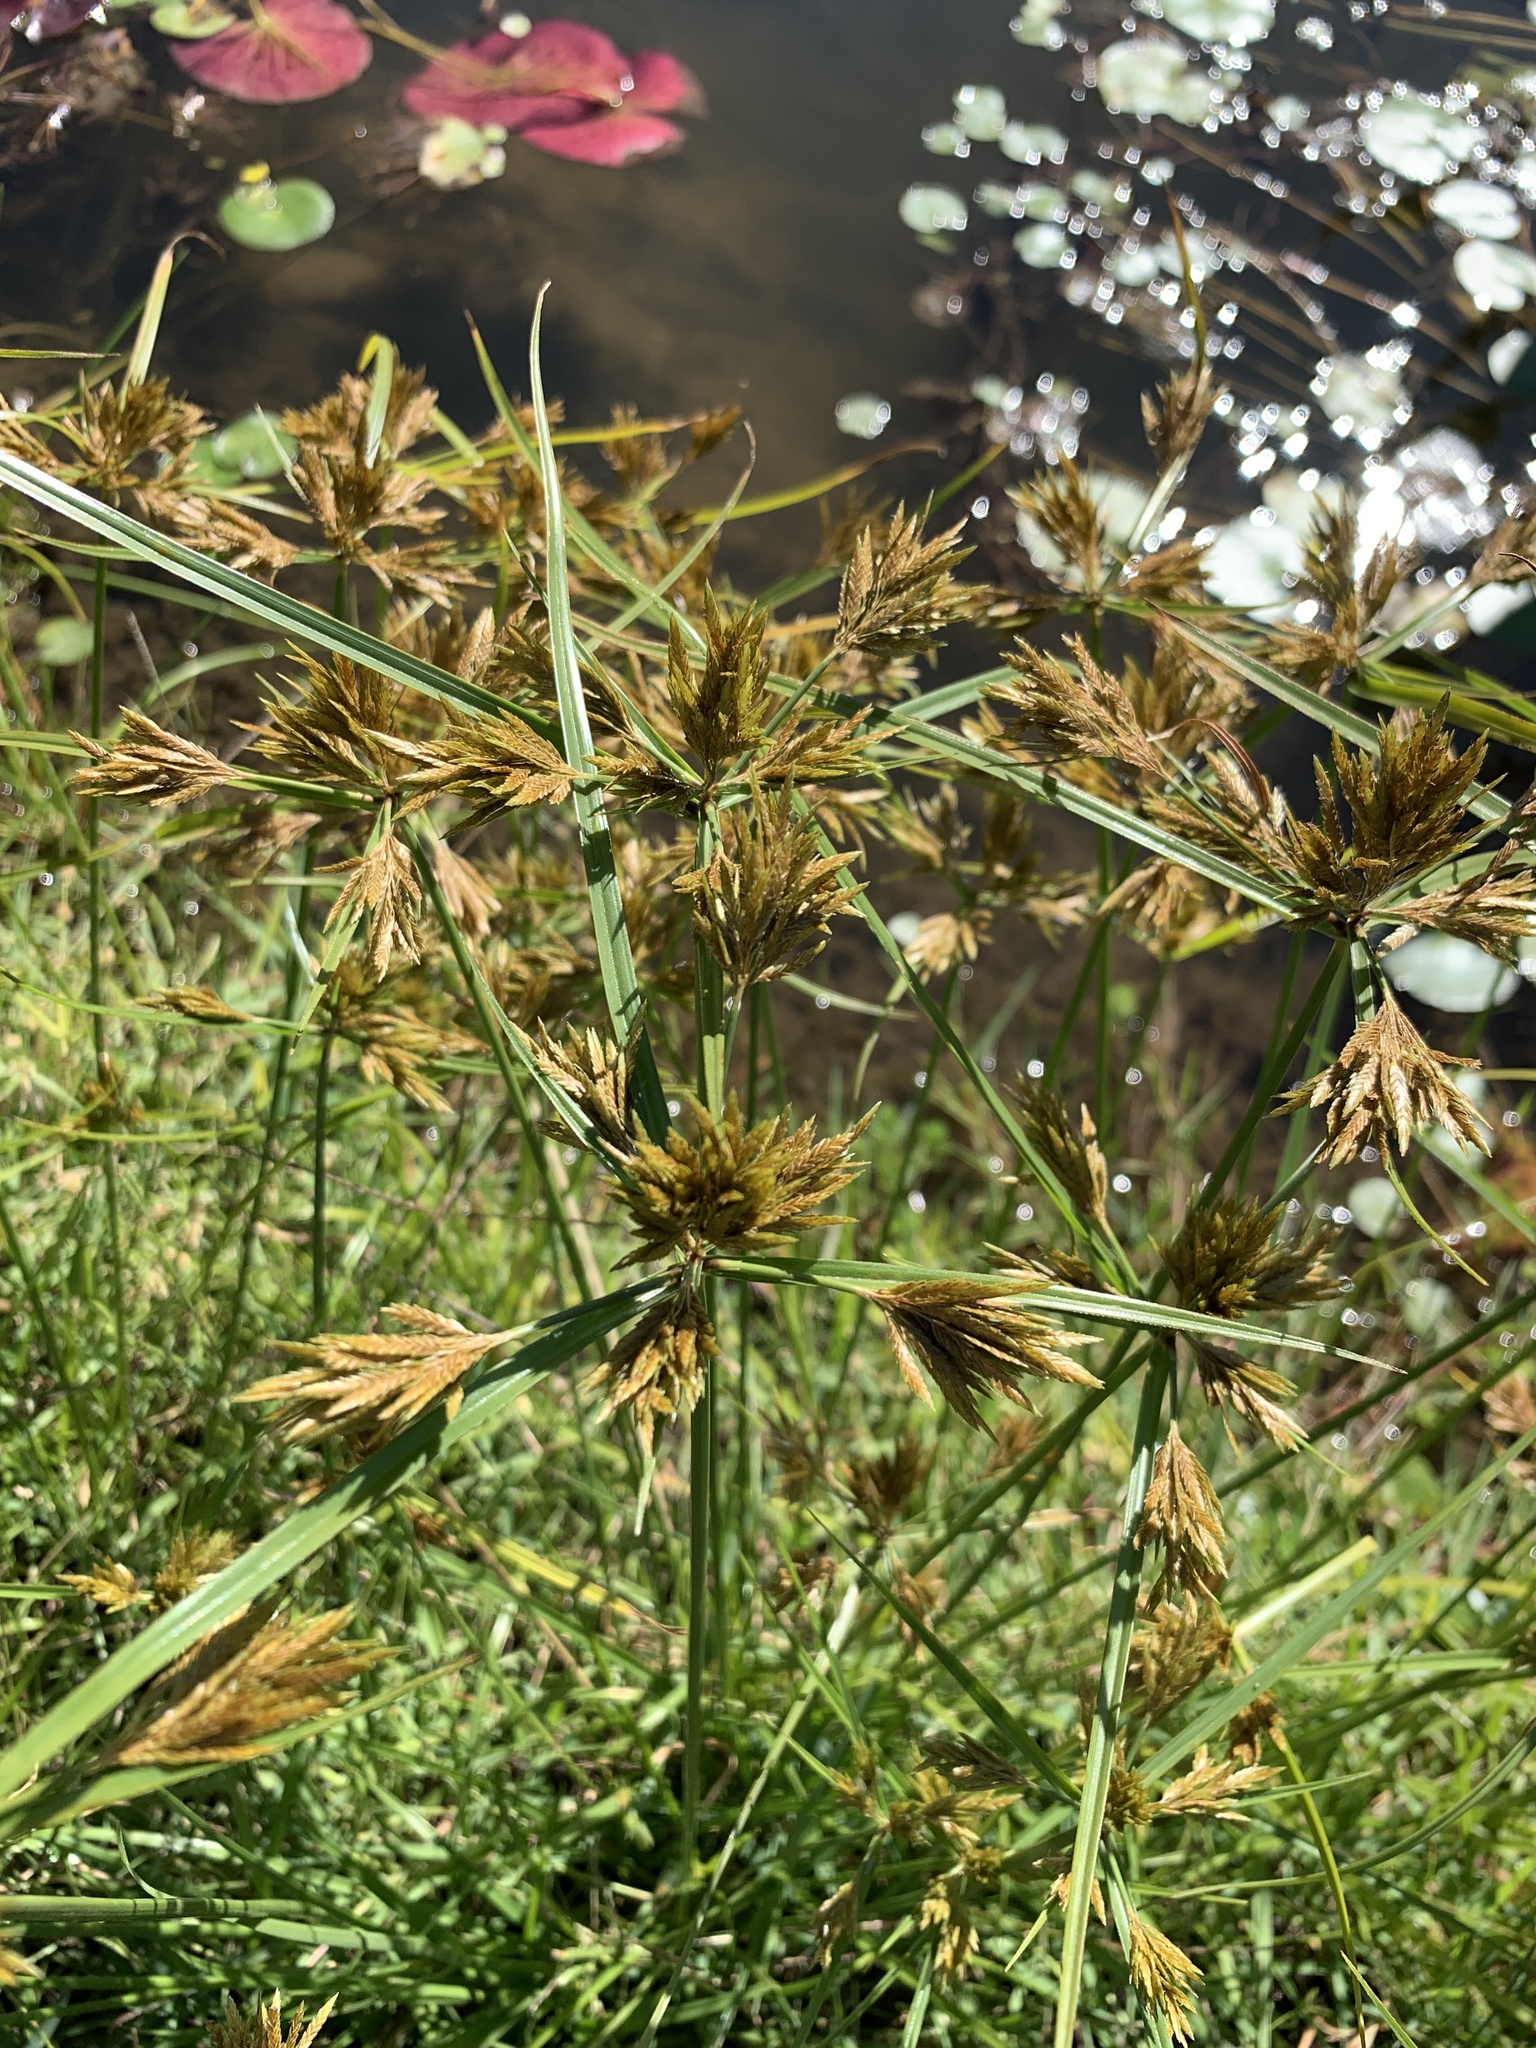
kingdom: Plantae
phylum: Tracheophyta
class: Liliopsida
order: Poales
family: Cyperaceae
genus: Cyperus
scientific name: Cyperus polystachyos
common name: Bunchy flat sedge
